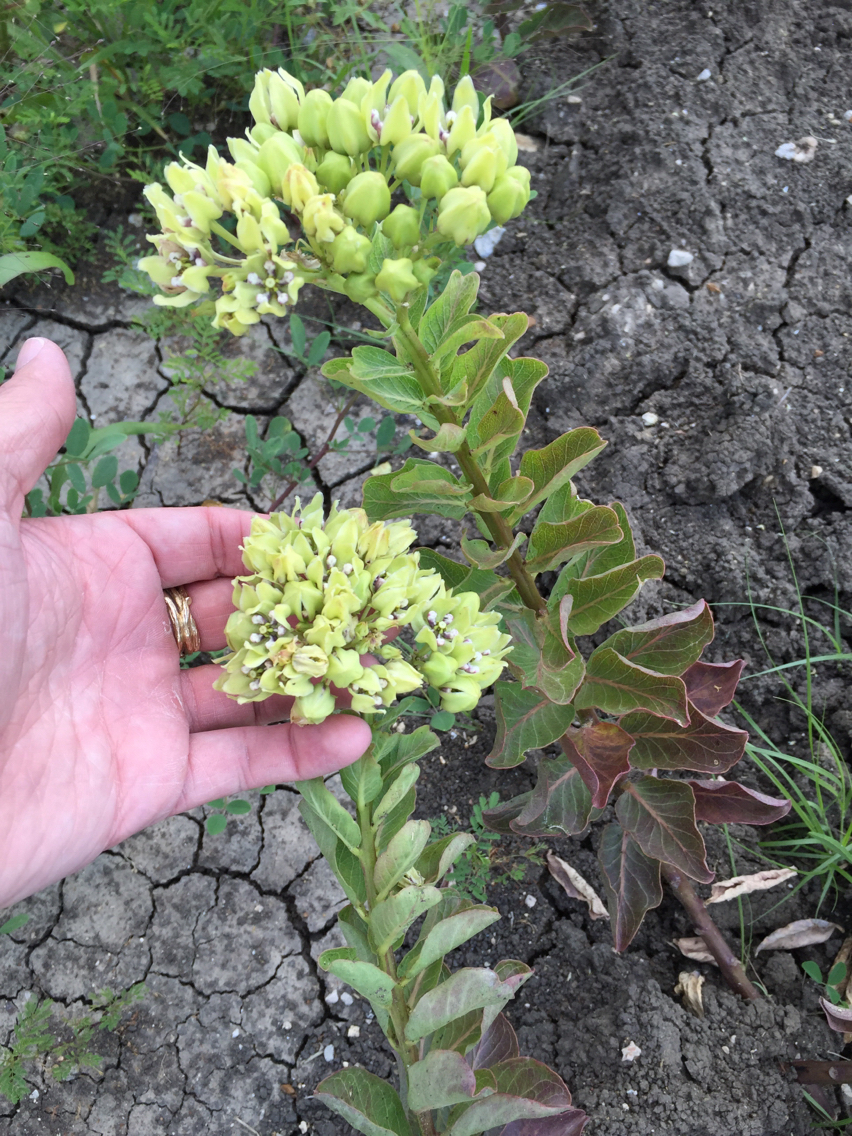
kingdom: Plantae
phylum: Tracheophyta
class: Magnoliopsida
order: Gentianales
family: Apocynaceae
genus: Asclepias
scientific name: Asclepias viridis
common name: Antelope-horns
